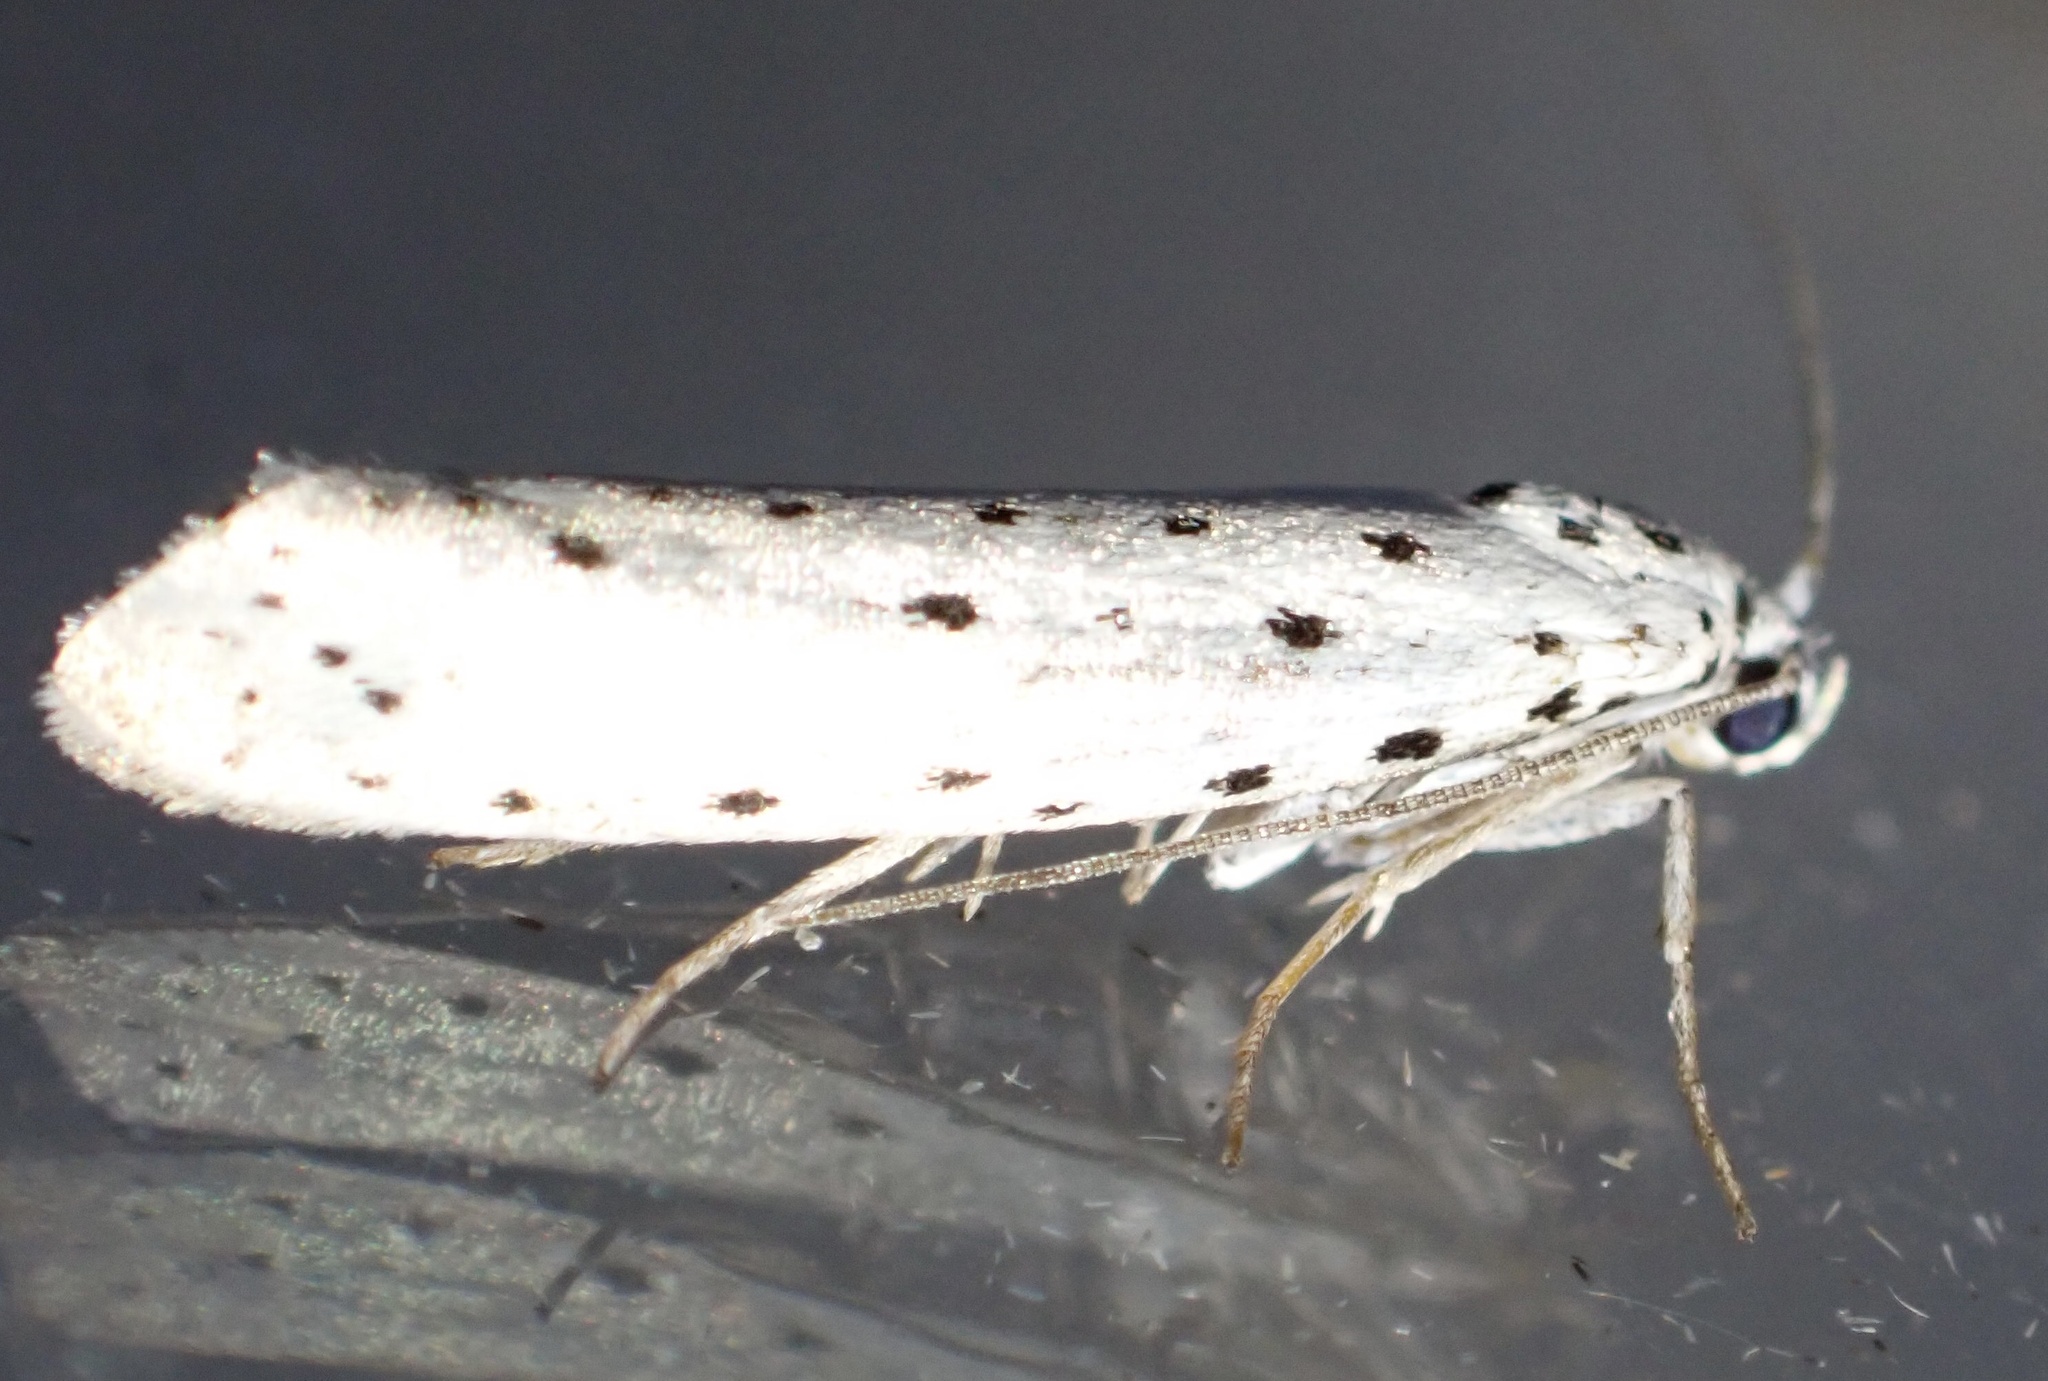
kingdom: Animalia
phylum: Arthropoda
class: Insecta
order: Lepidoptera
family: Yponomeutidae
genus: Yponomeuta
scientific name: Yponomeuta
